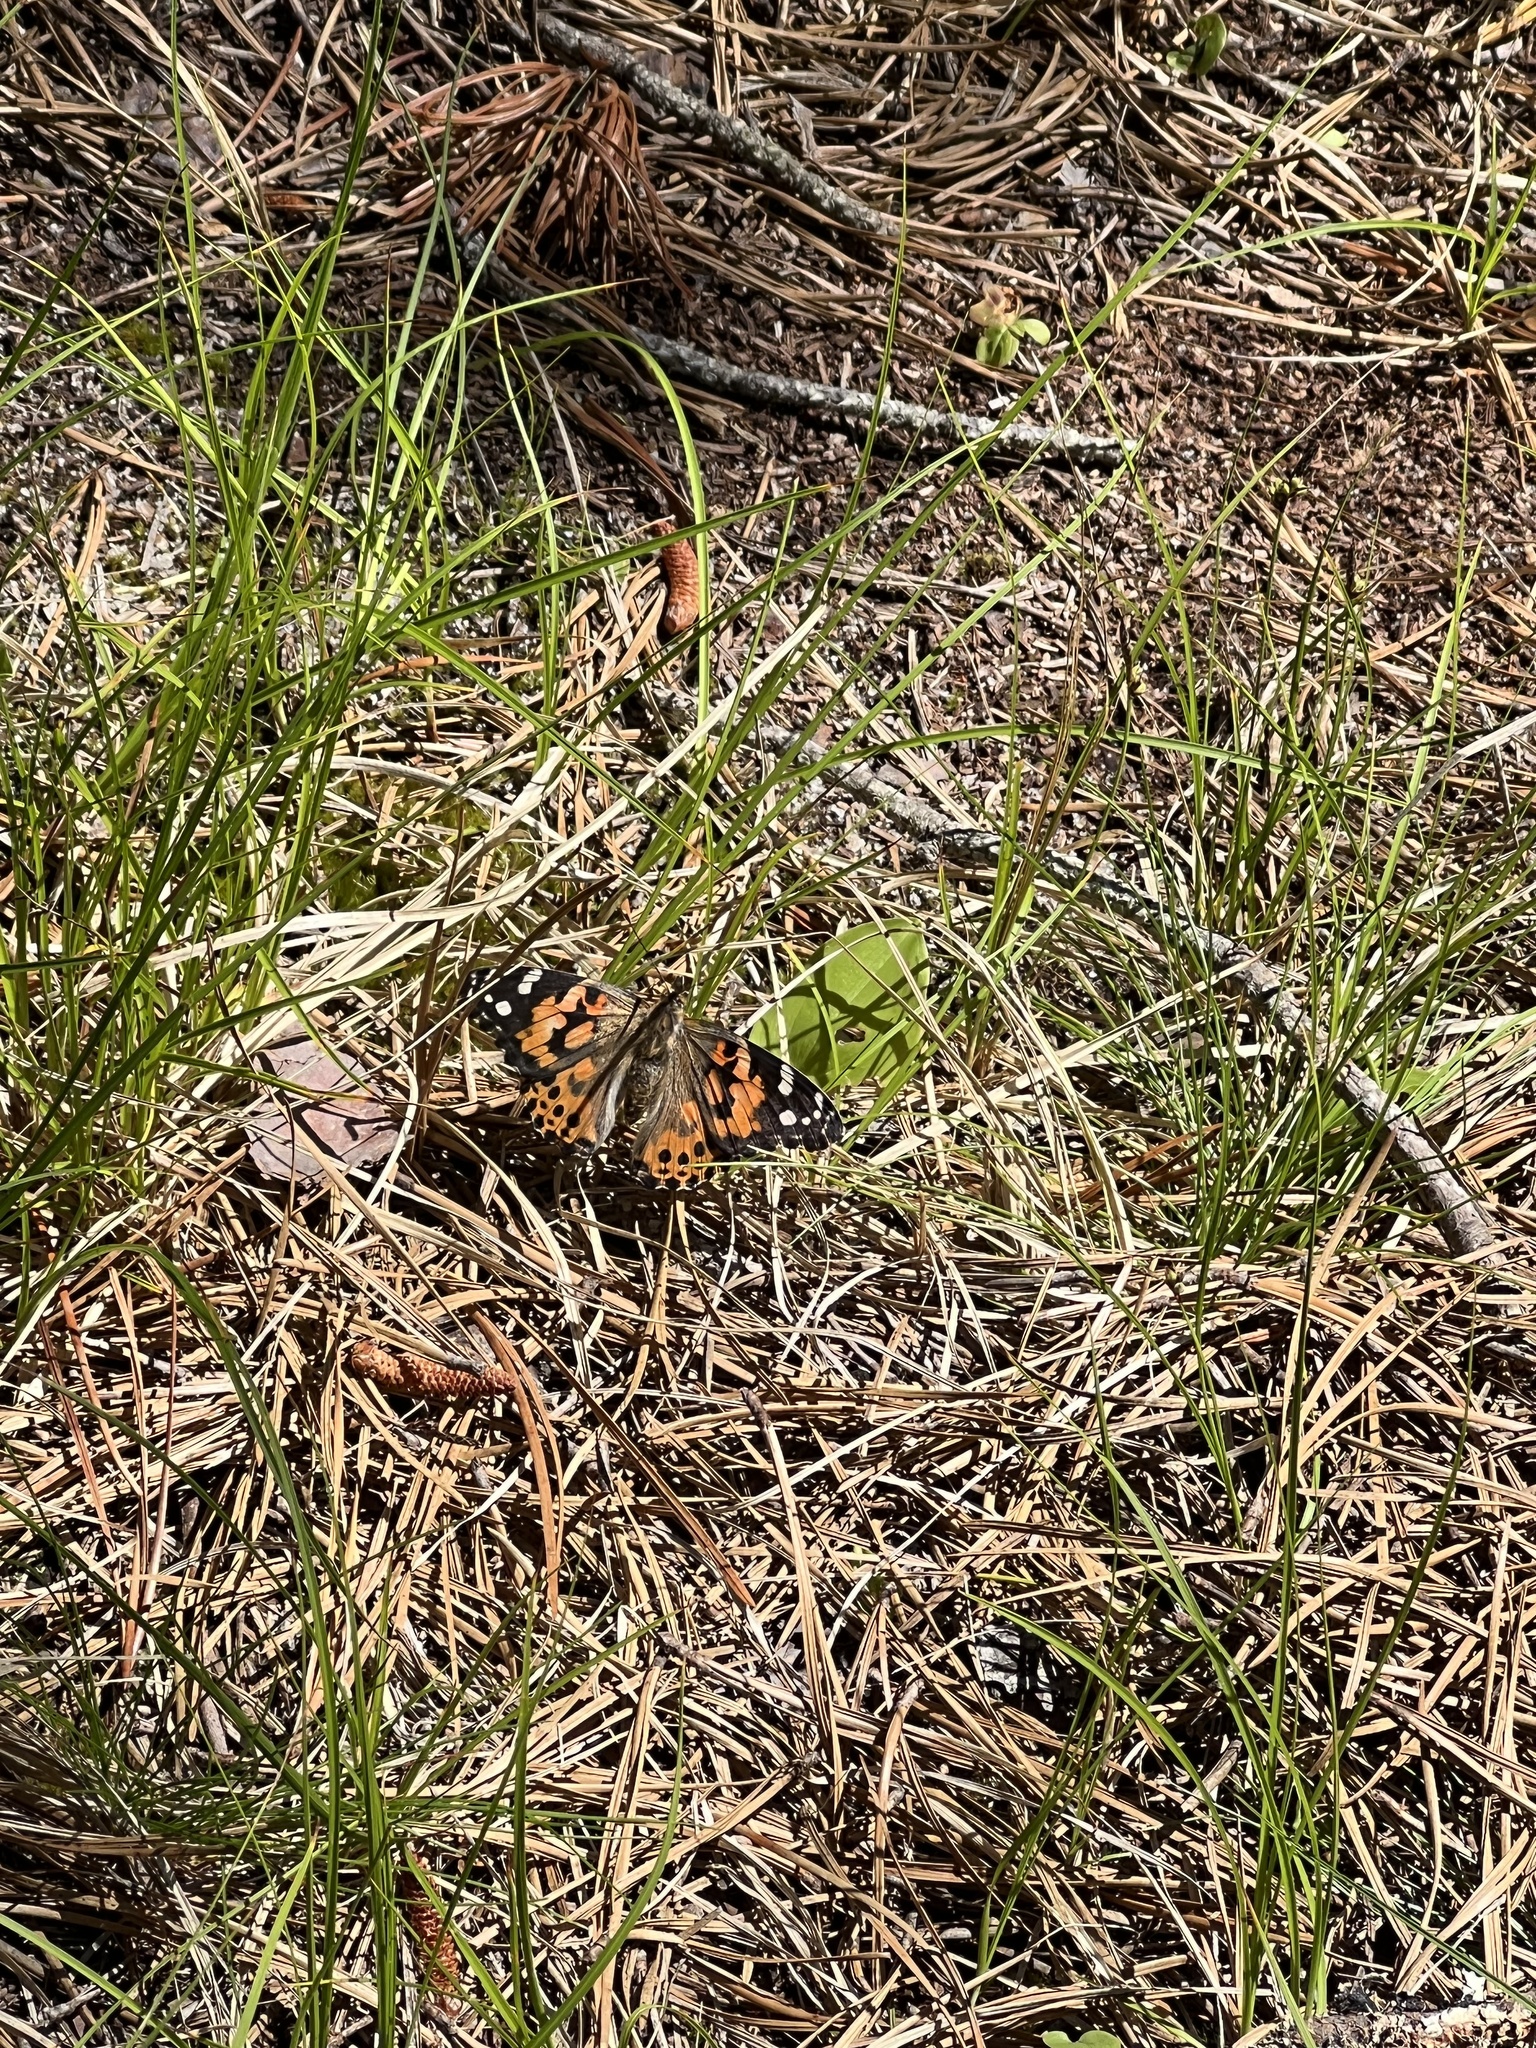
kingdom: Animalia
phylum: Arthropoda
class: Insecta
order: Lepidoptera
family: Nymphalidae
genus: Vanessa
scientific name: Vanessa cardui
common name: Painted lady
